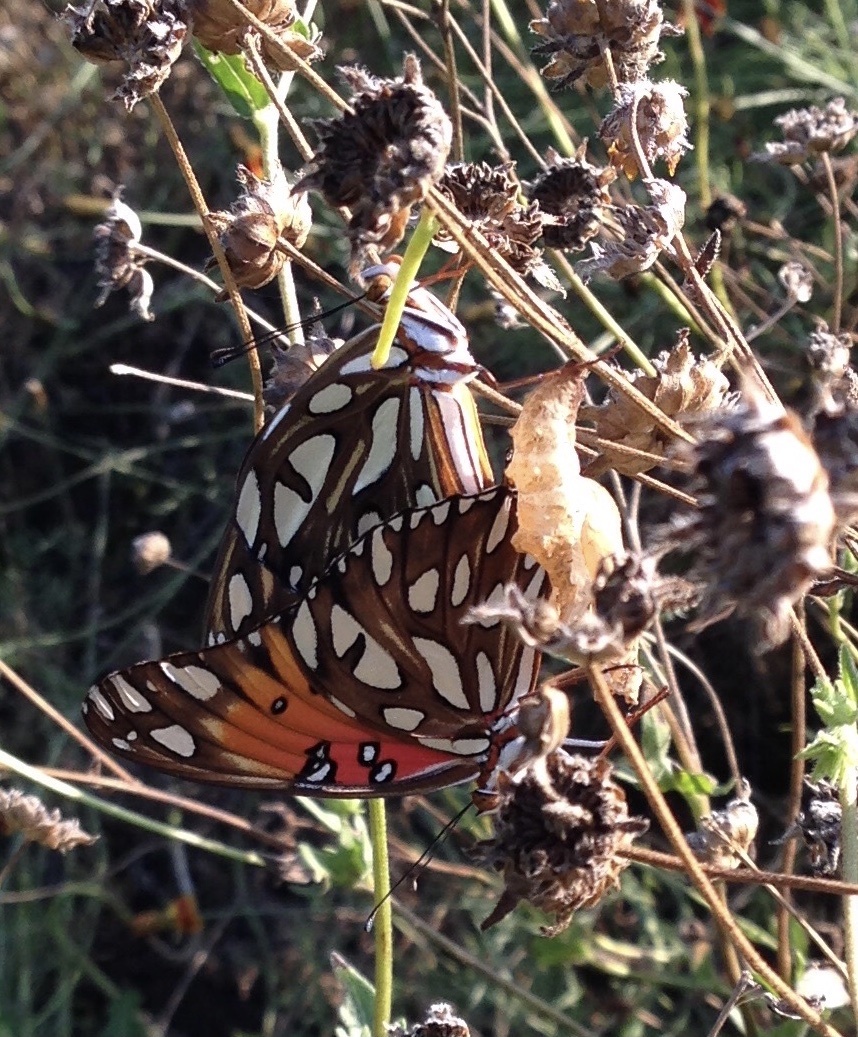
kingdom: Animalia
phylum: Arthropoda
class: Insecta
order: Lepidoptera
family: Nymphalidae
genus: Dione
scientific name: Dione vanillae
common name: Gulf fritillary
